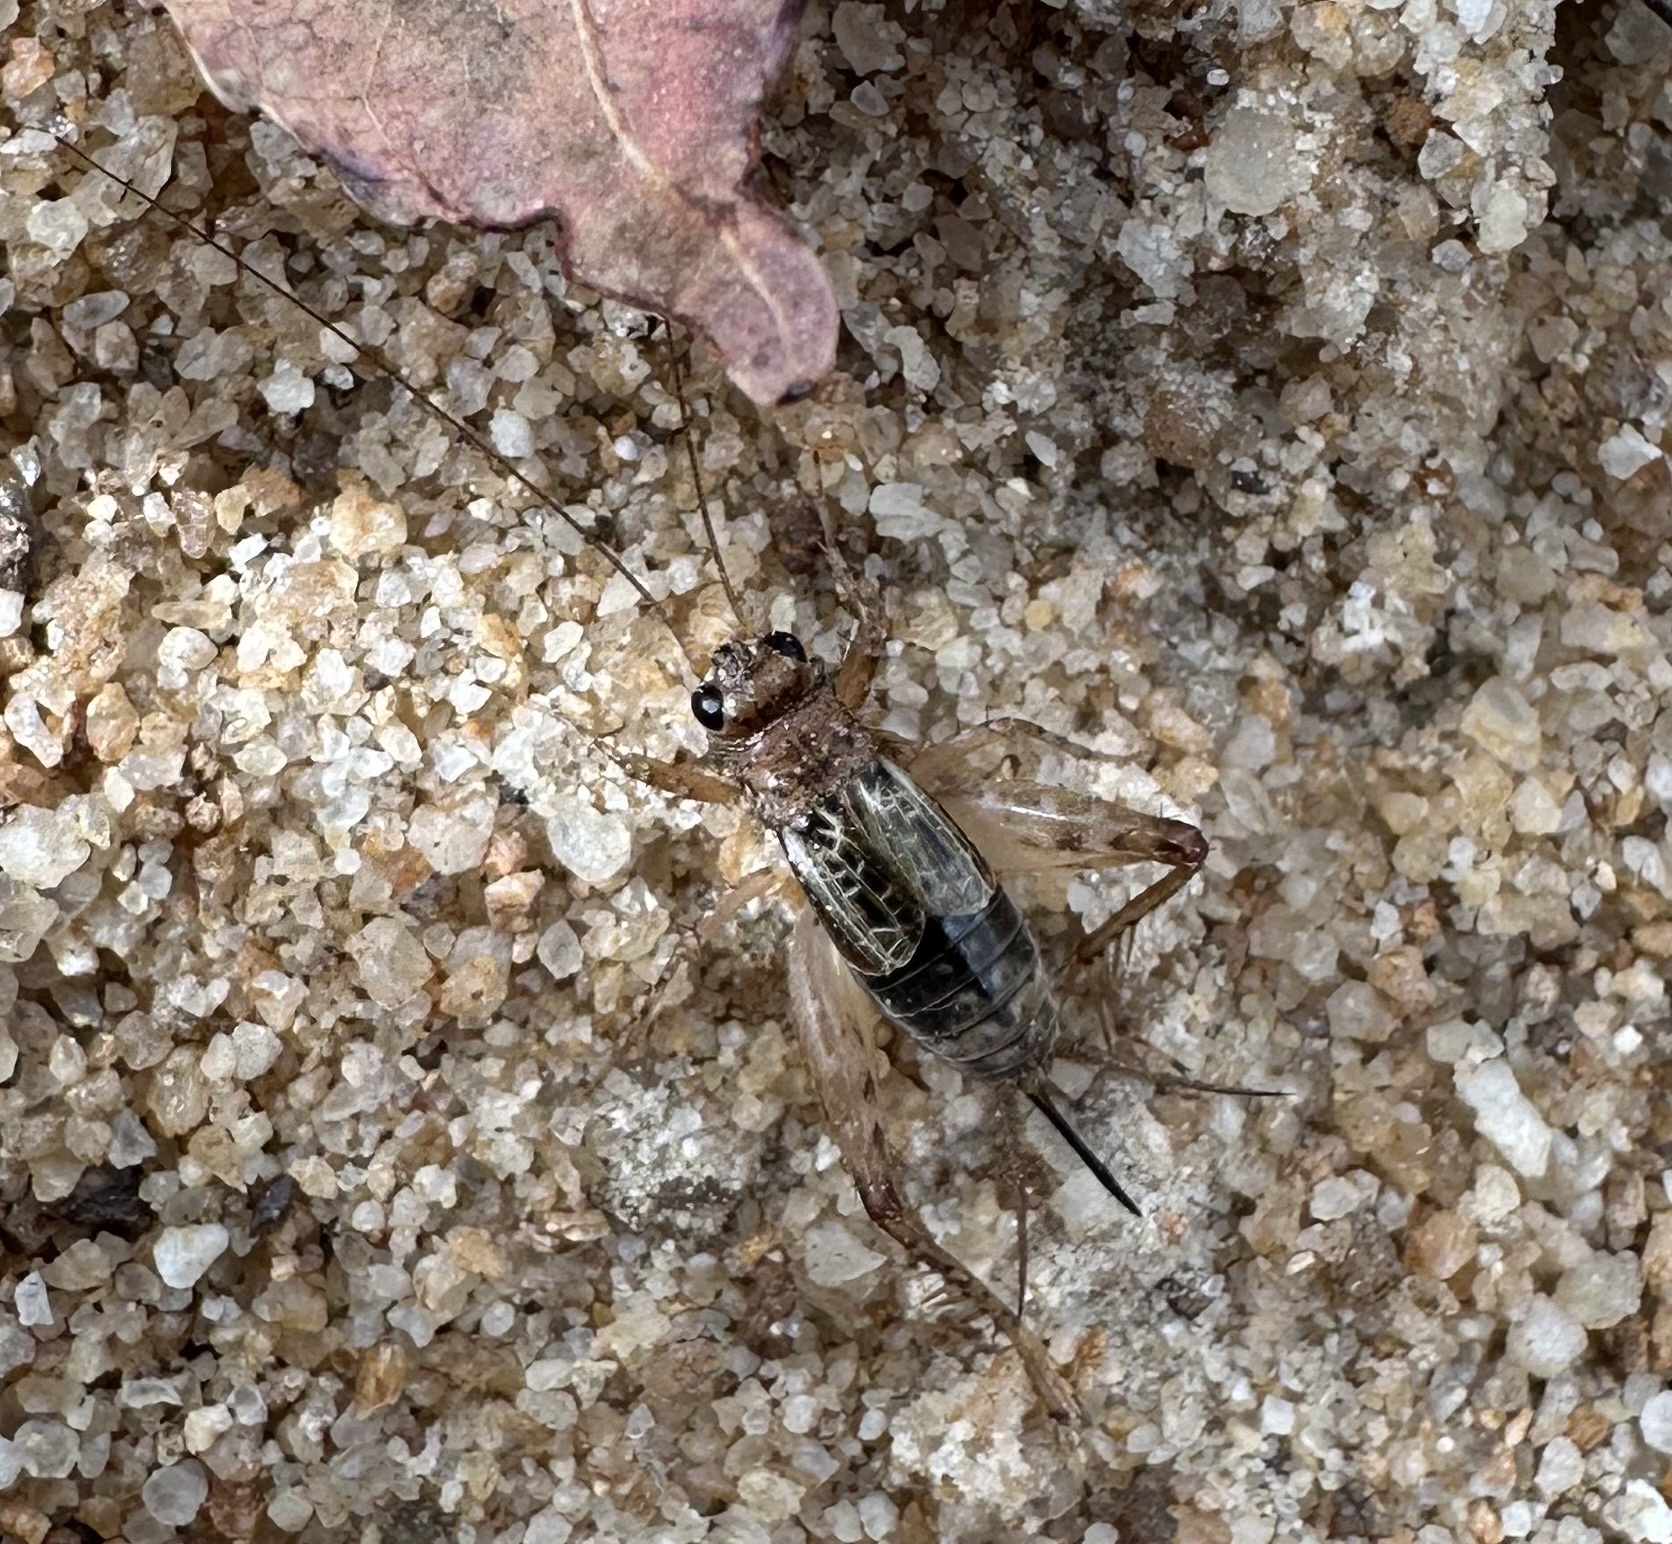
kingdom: Animalia
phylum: Arthropoda
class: Insecta
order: Orthoptera
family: Trigonidiidae
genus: Neonemobius
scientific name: Neonemobius variegatus
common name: Smaller spotted ground cricket
